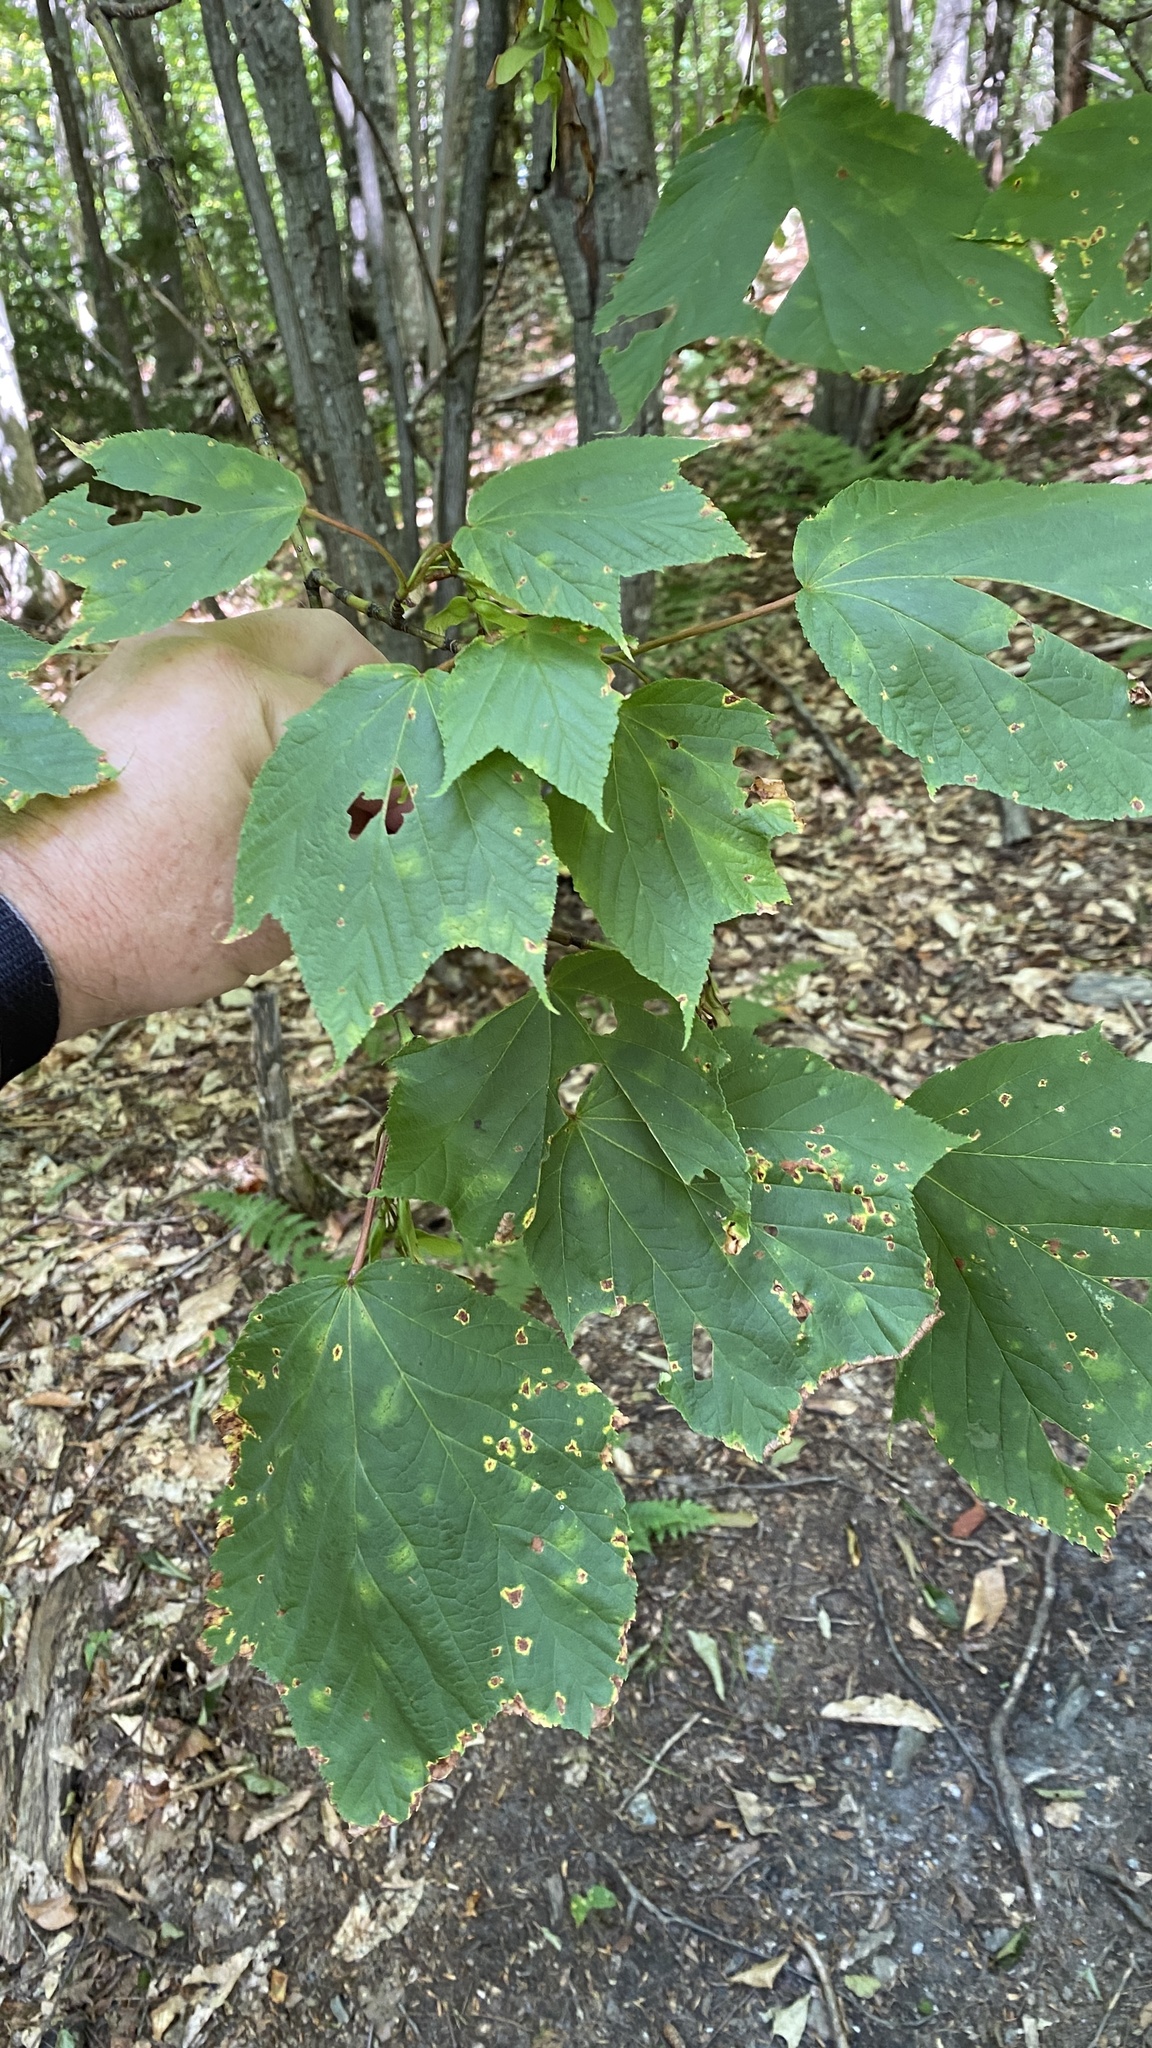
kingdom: Plantae
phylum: Tracheophyta
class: Magnoliopsida
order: Sapindales
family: Sapindaceae
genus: Acer
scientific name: Acer pensylvanicum
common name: Moosewood
